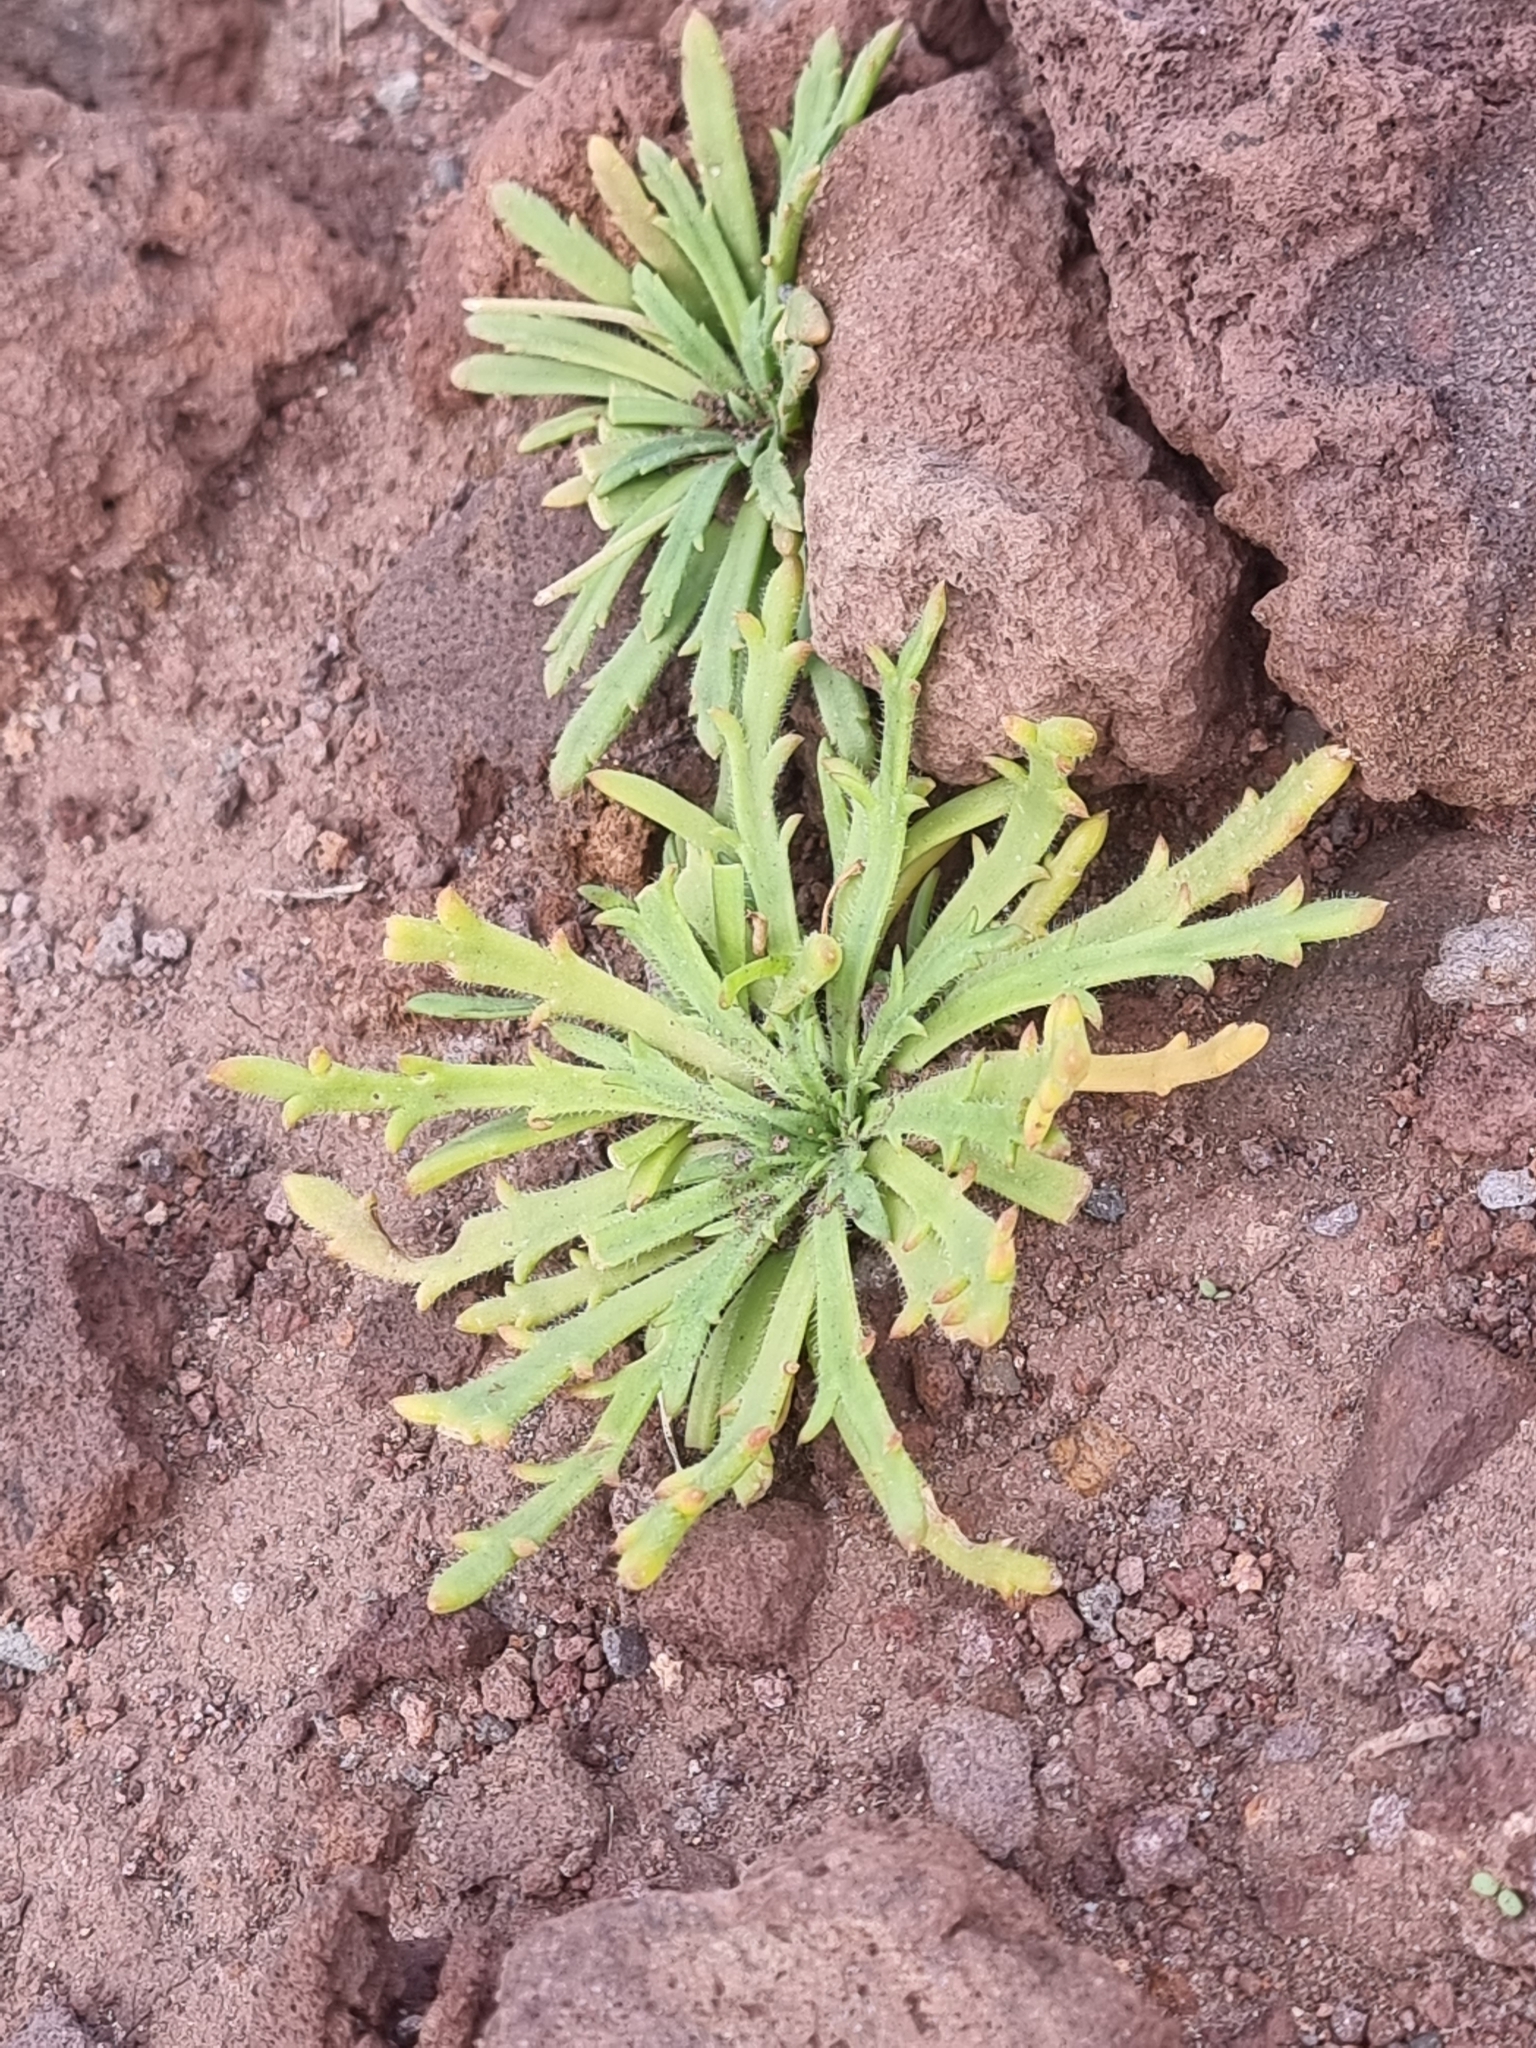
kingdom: Plantae
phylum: Tracheophyta
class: Magnoliopsida
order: Lamiales
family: Plantaginaceae
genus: Plantago
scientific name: Plantago coronopus
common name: Buck's-horn plantain
